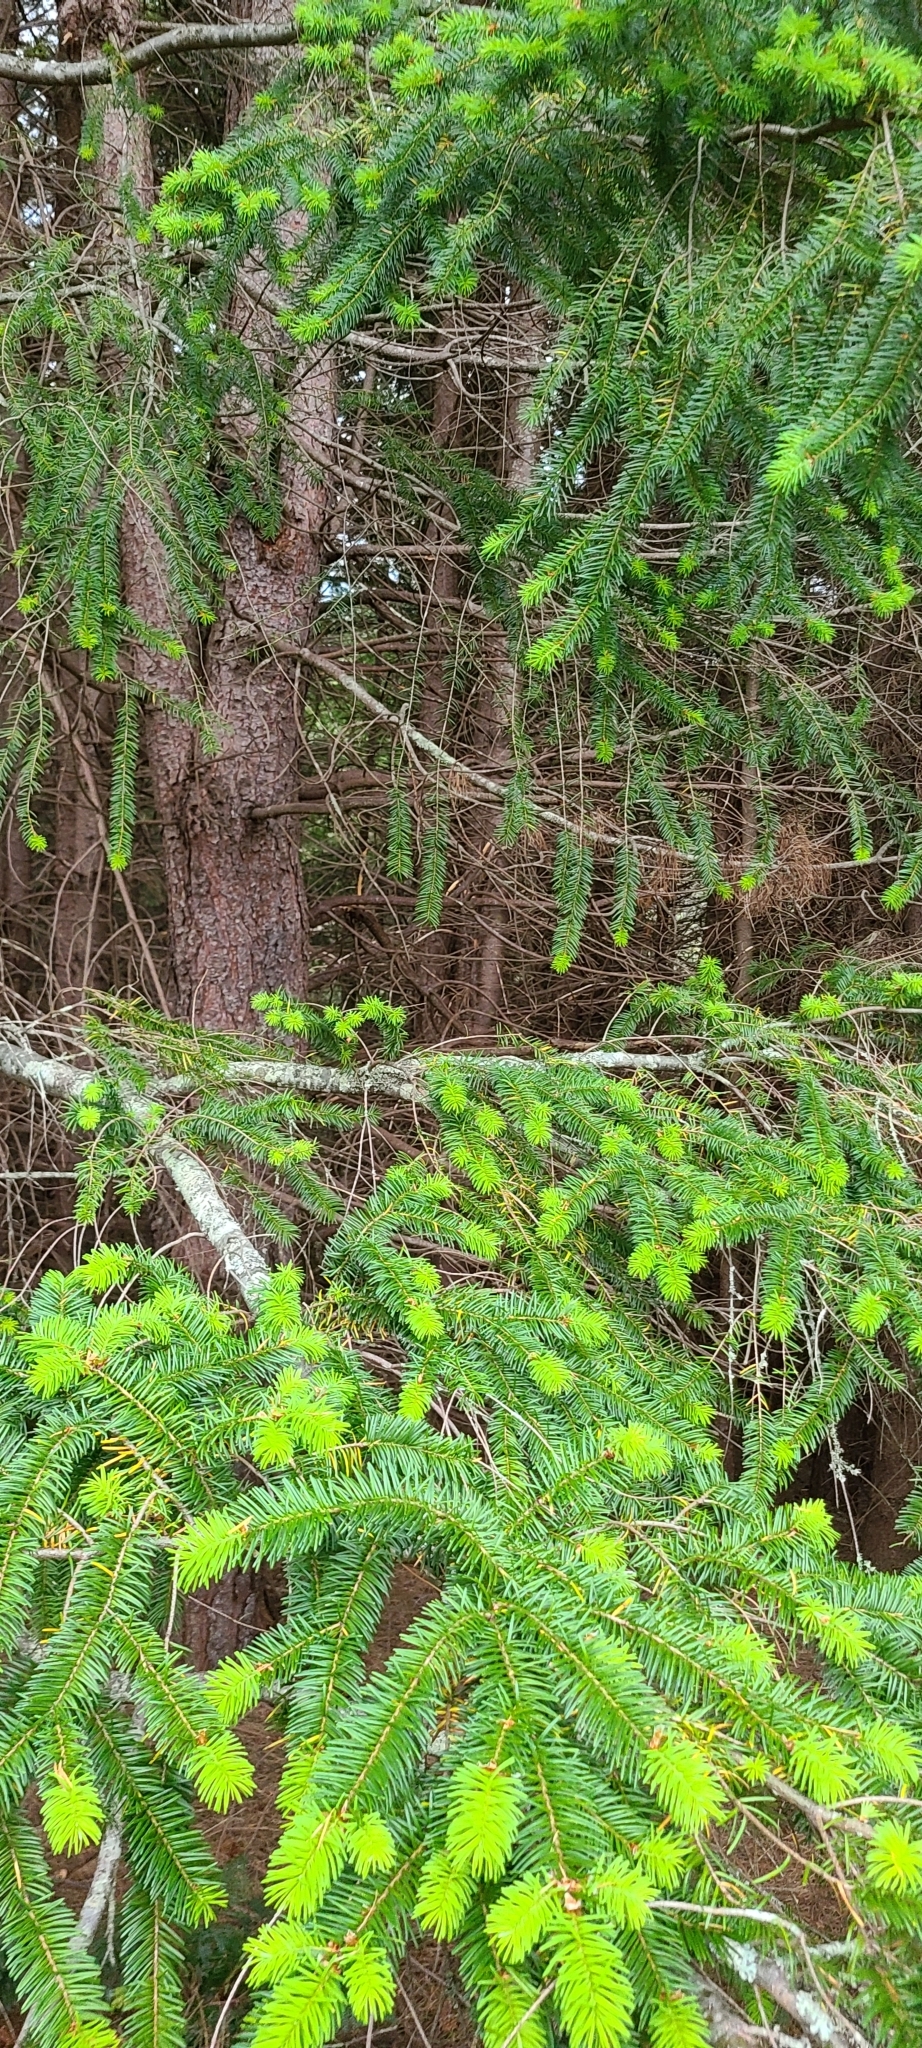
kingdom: Plantae
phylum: Tracheophyta
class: Pinopsida
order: Pinales
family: Pinaceae
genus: Pseudotsuga
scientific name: Pseudotsuga menziesii
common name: Douglas fir
